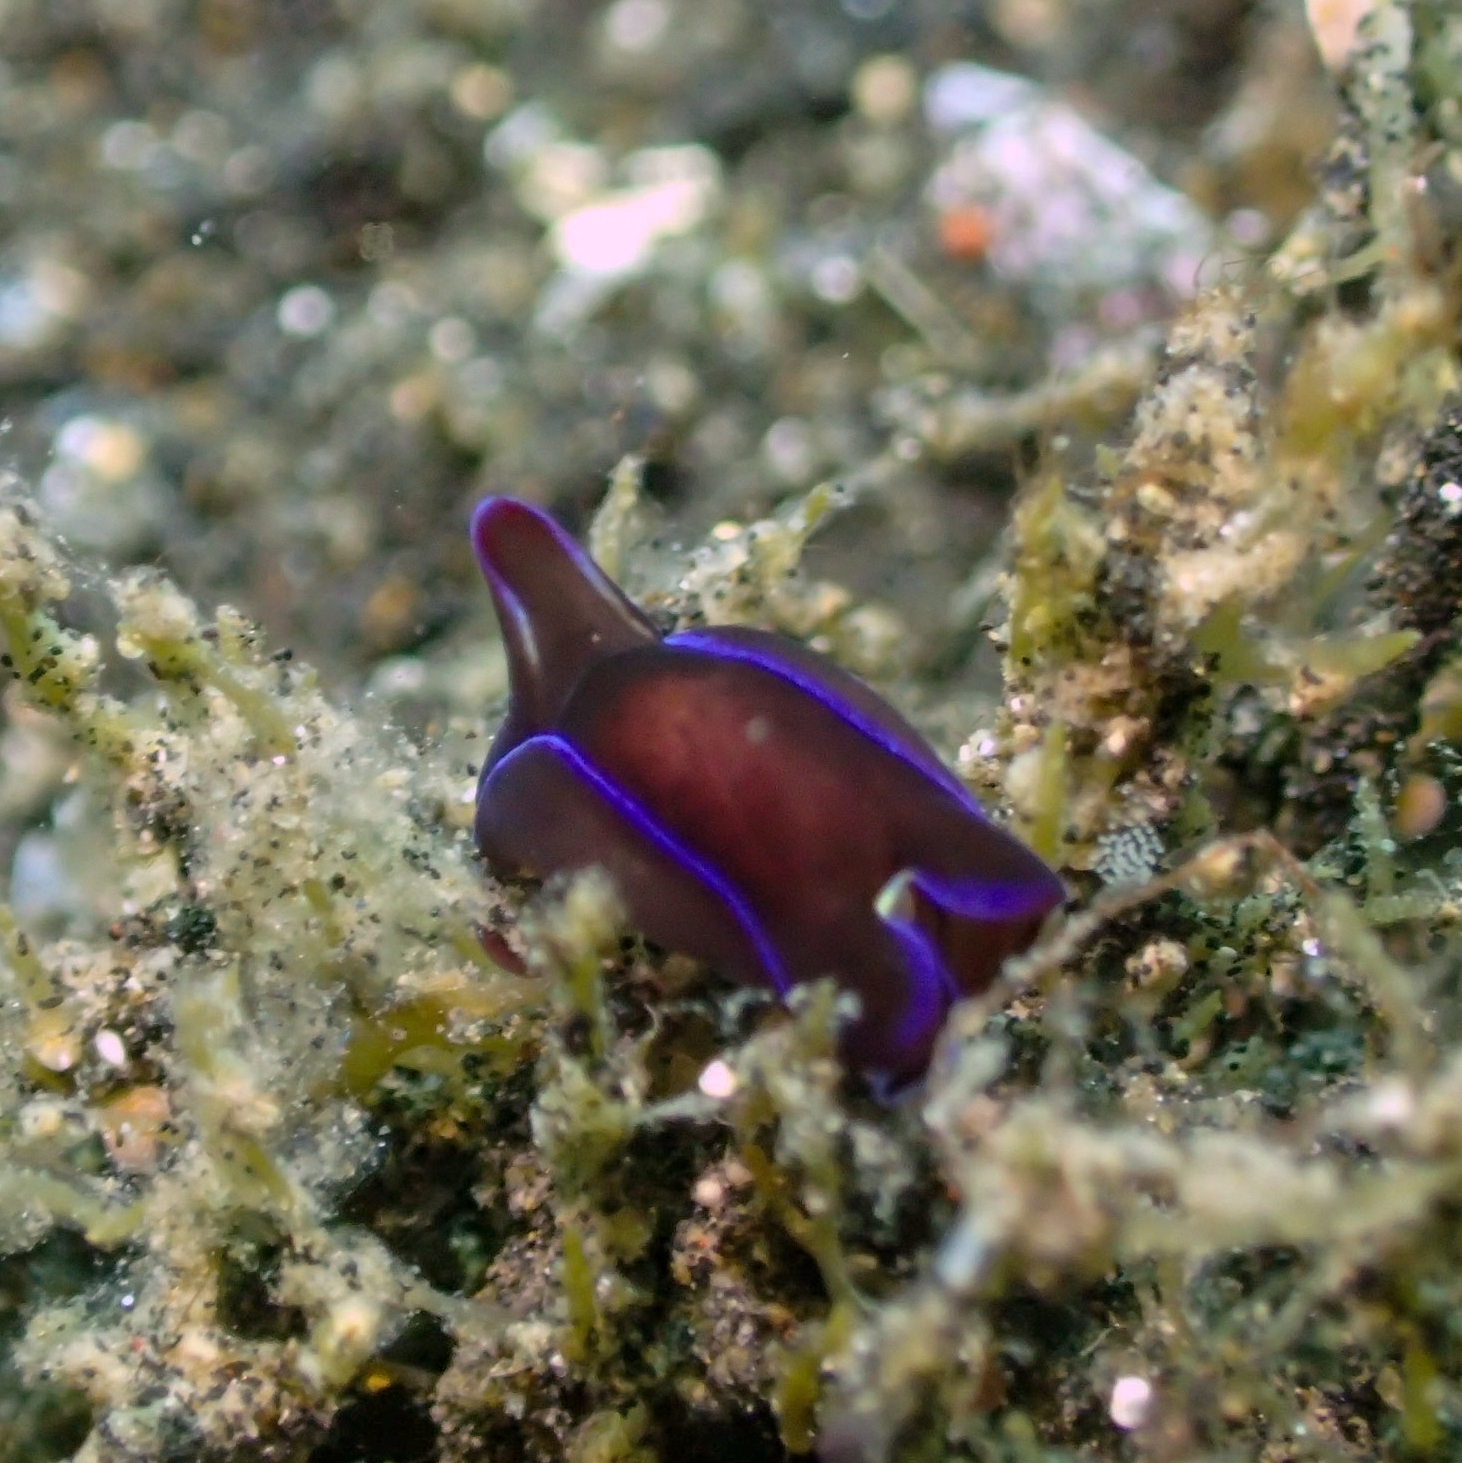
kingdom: Animalia
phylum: Mollusca
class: Gastropoda
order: Cephalaspidea
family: Aglajidae
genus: Philinopsis
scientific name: Philinopsis speciosa
